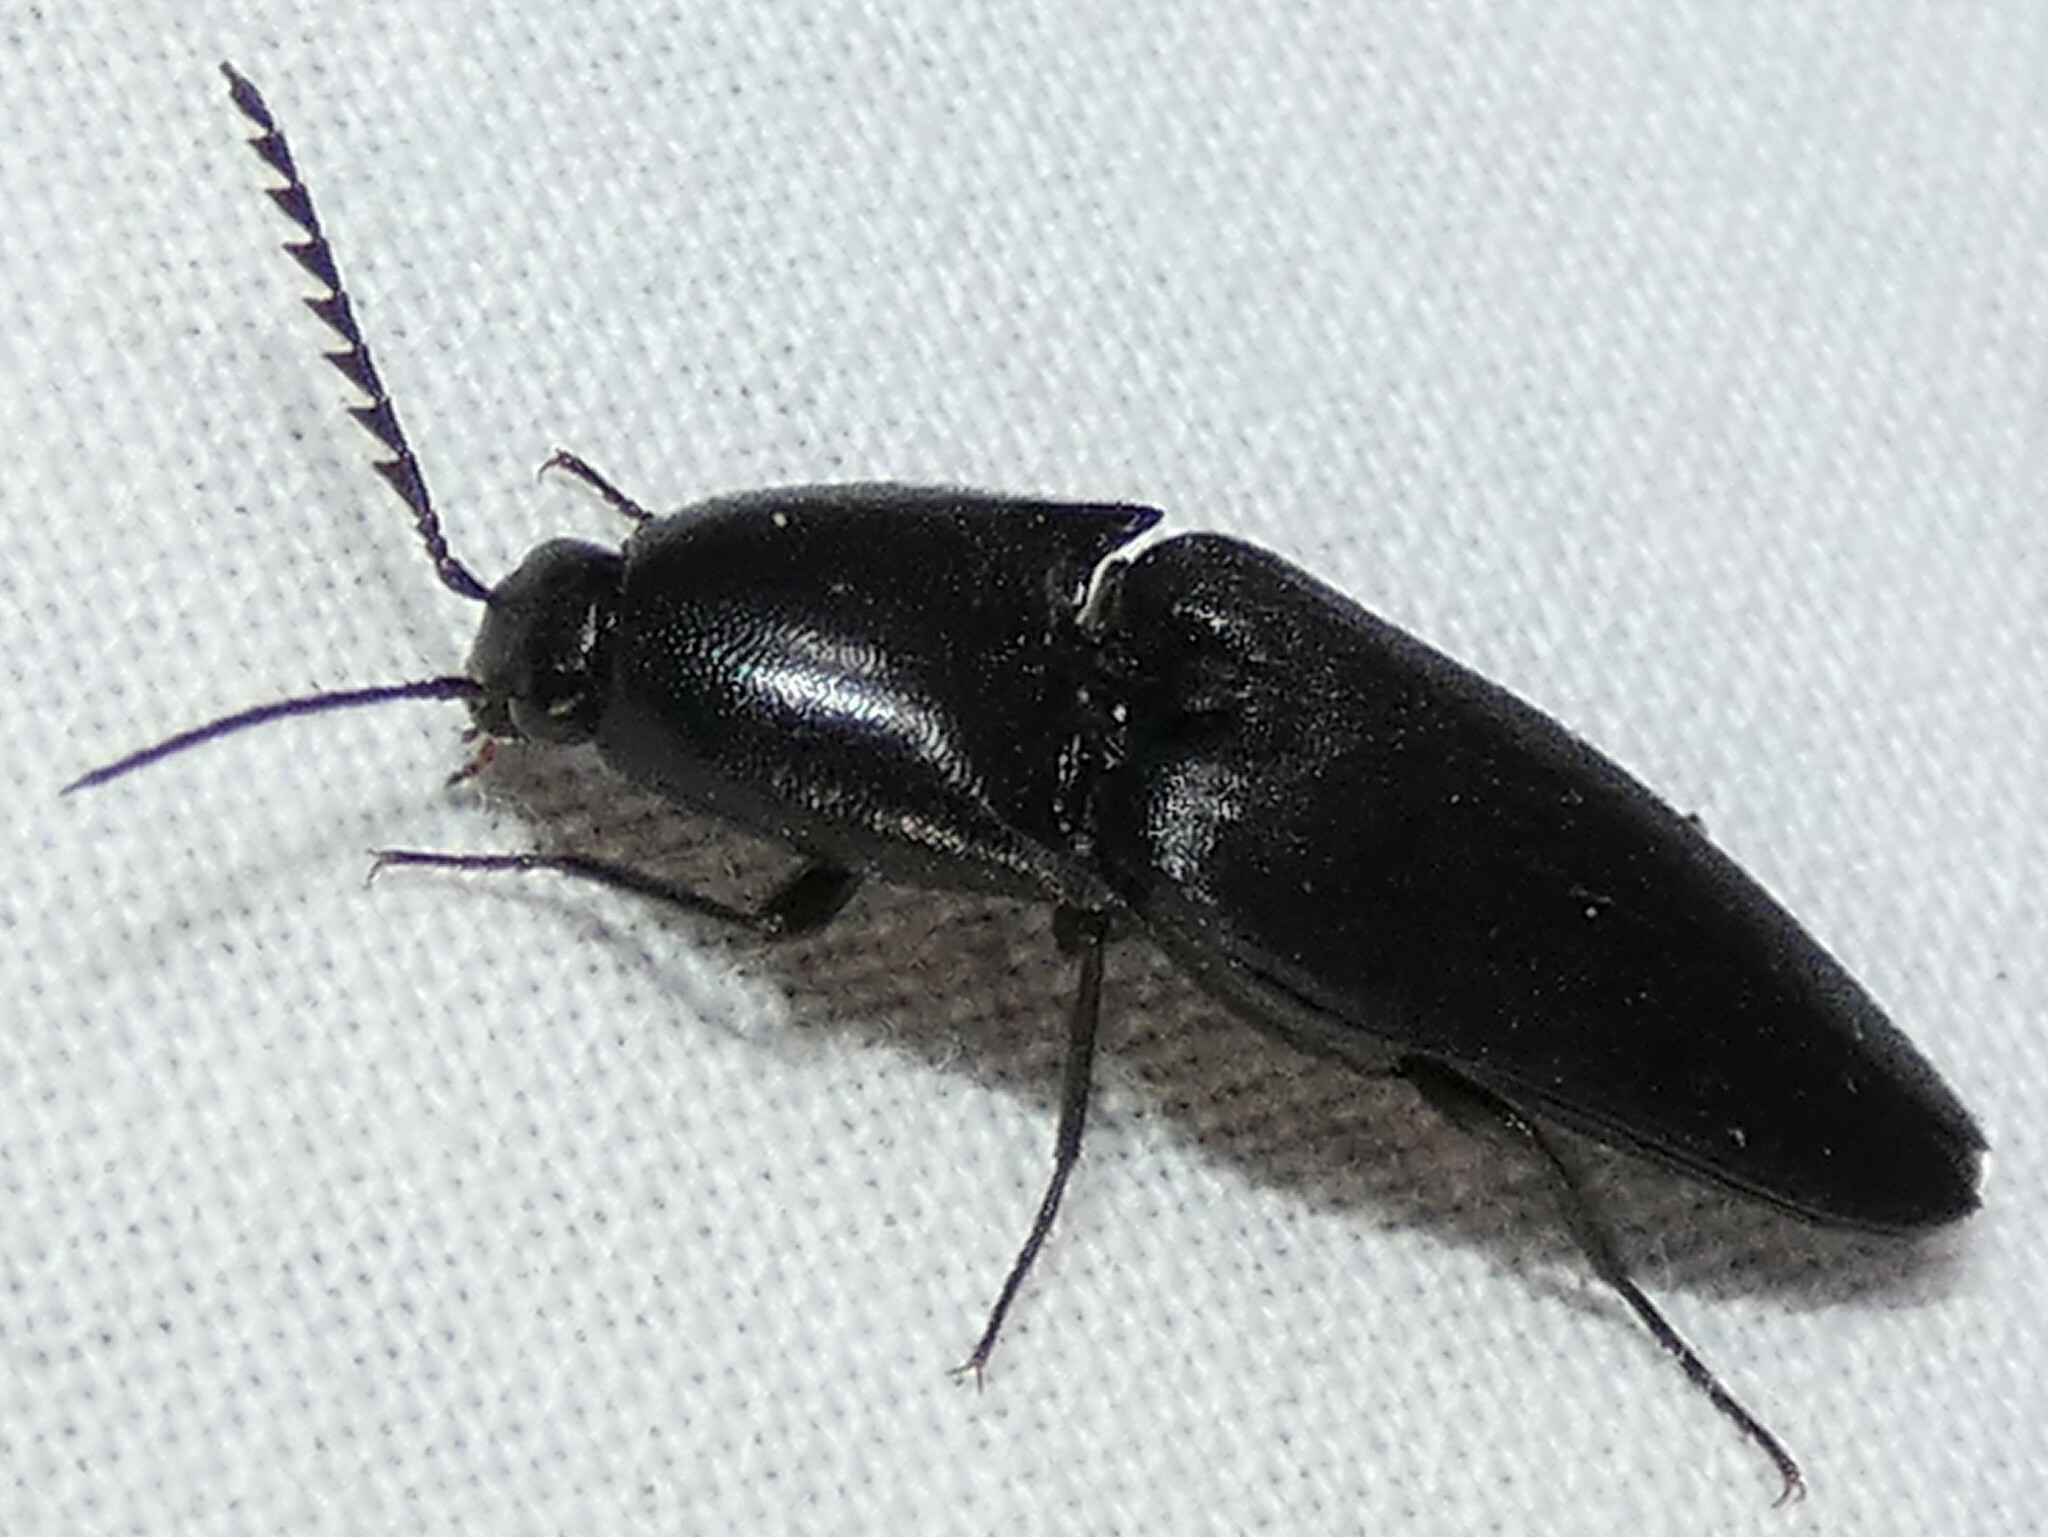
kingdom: Animalia
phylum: Arthropoda
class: Insecta
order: Coleoptera
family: Elateridae
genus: Parallelostethus
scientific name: Parallelostethus attenuatus
